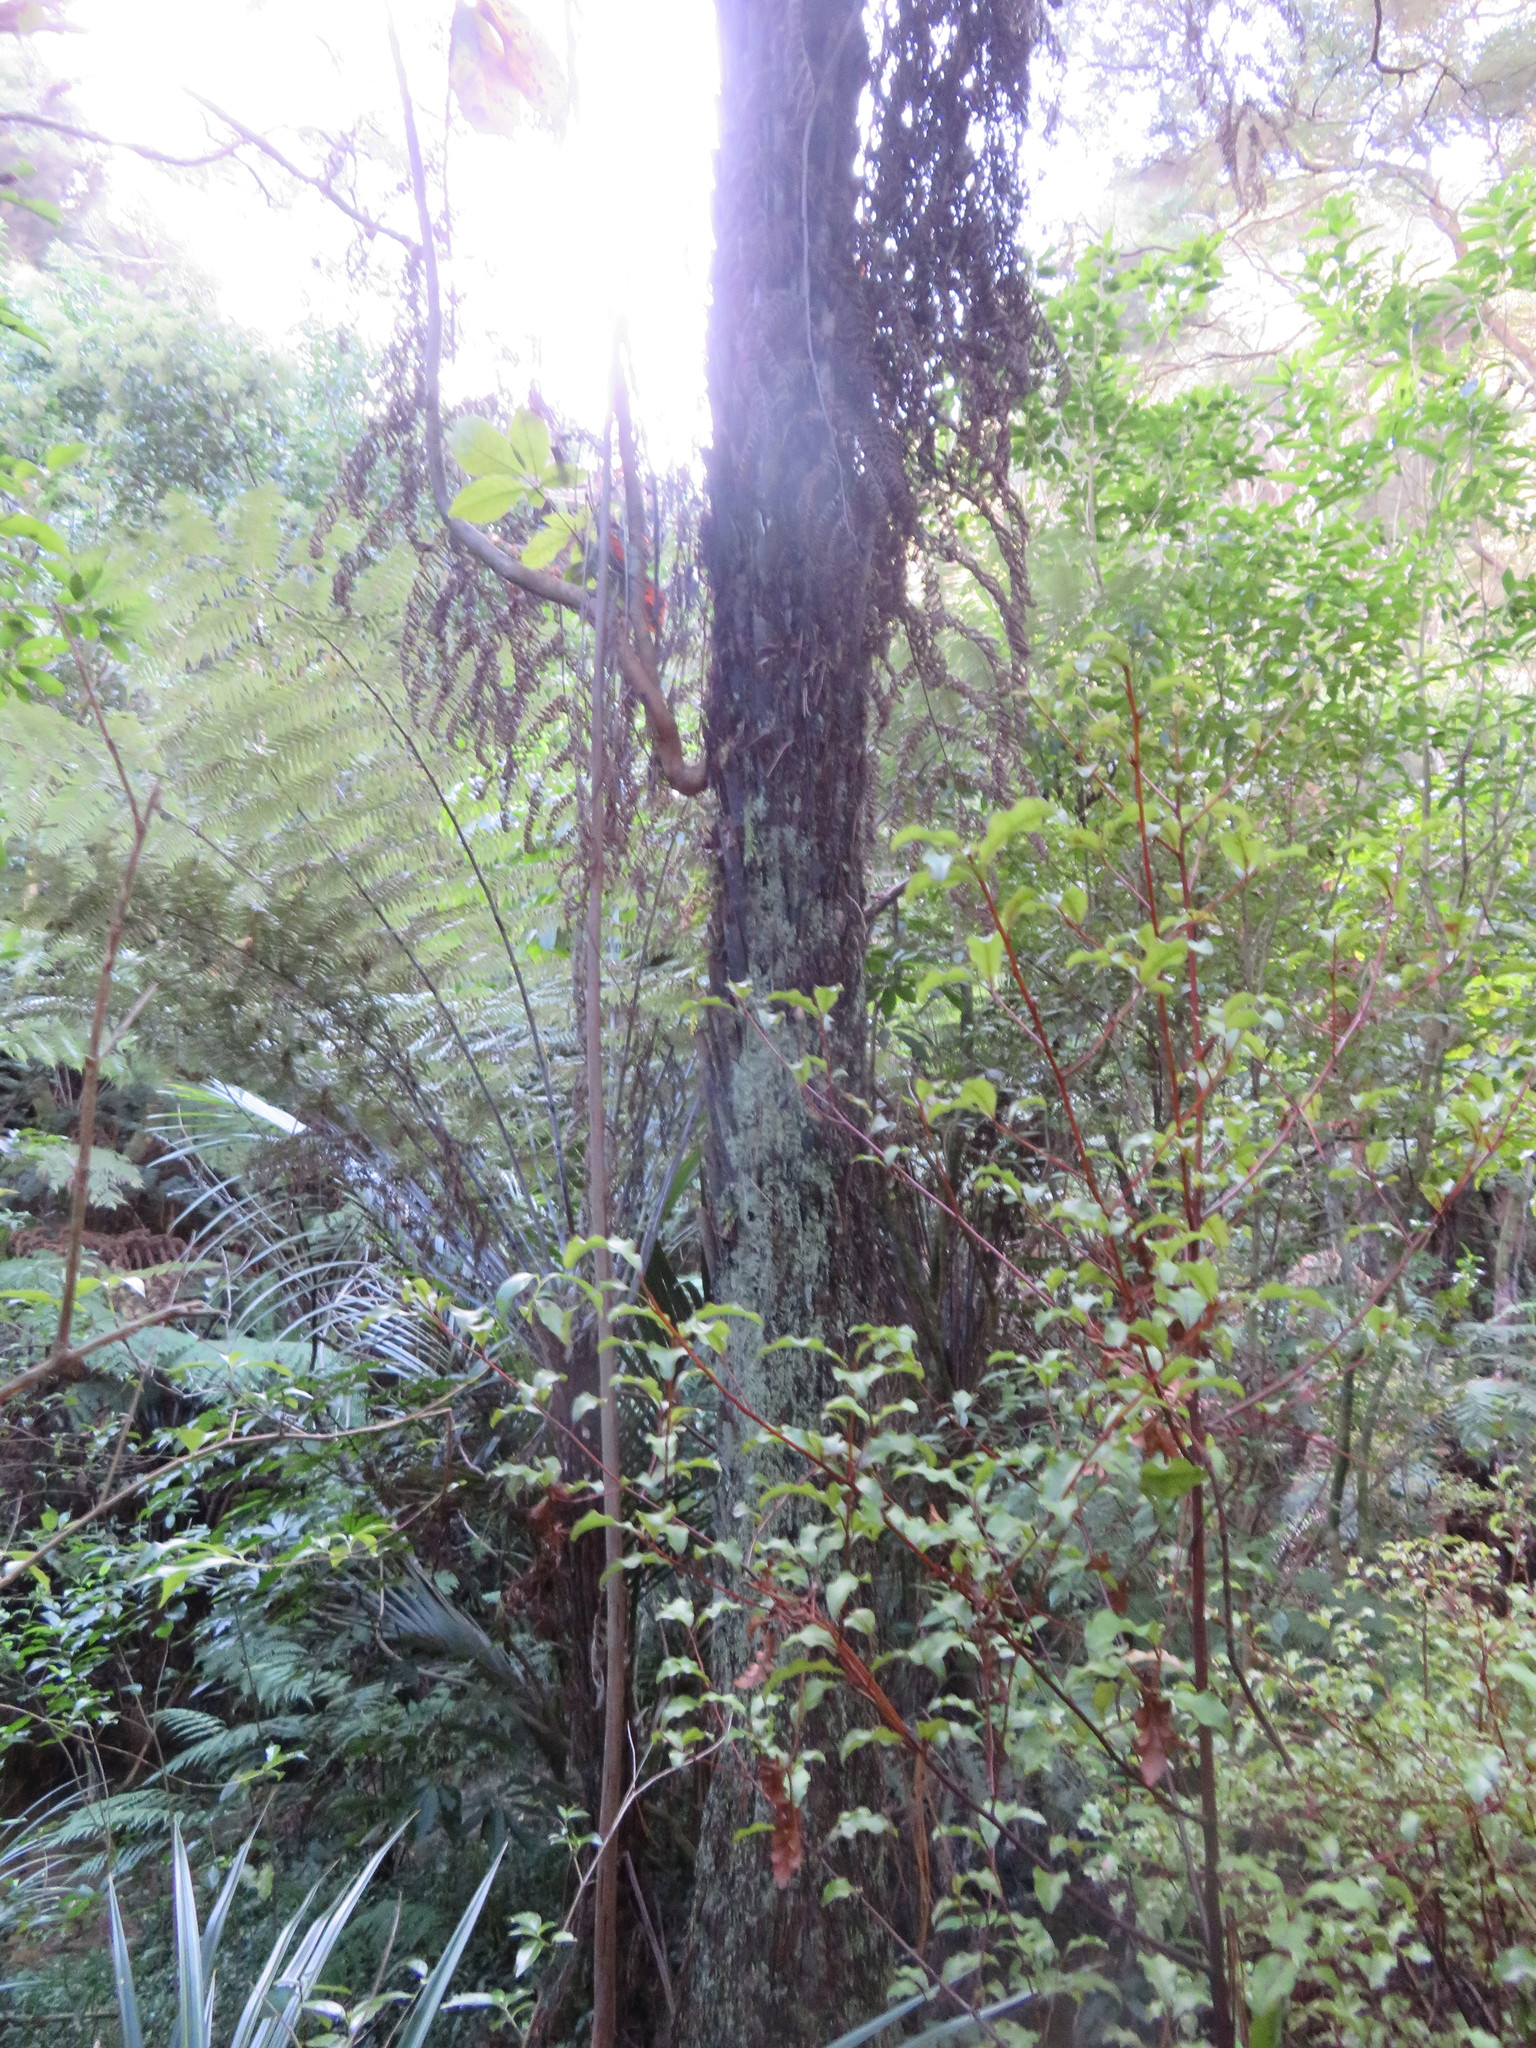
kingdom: Plantae
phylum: Tracheophyta
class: Magnoliopsida
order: Ericales
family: Primulaceae
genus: Myrsine
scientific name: Myrsine australis
